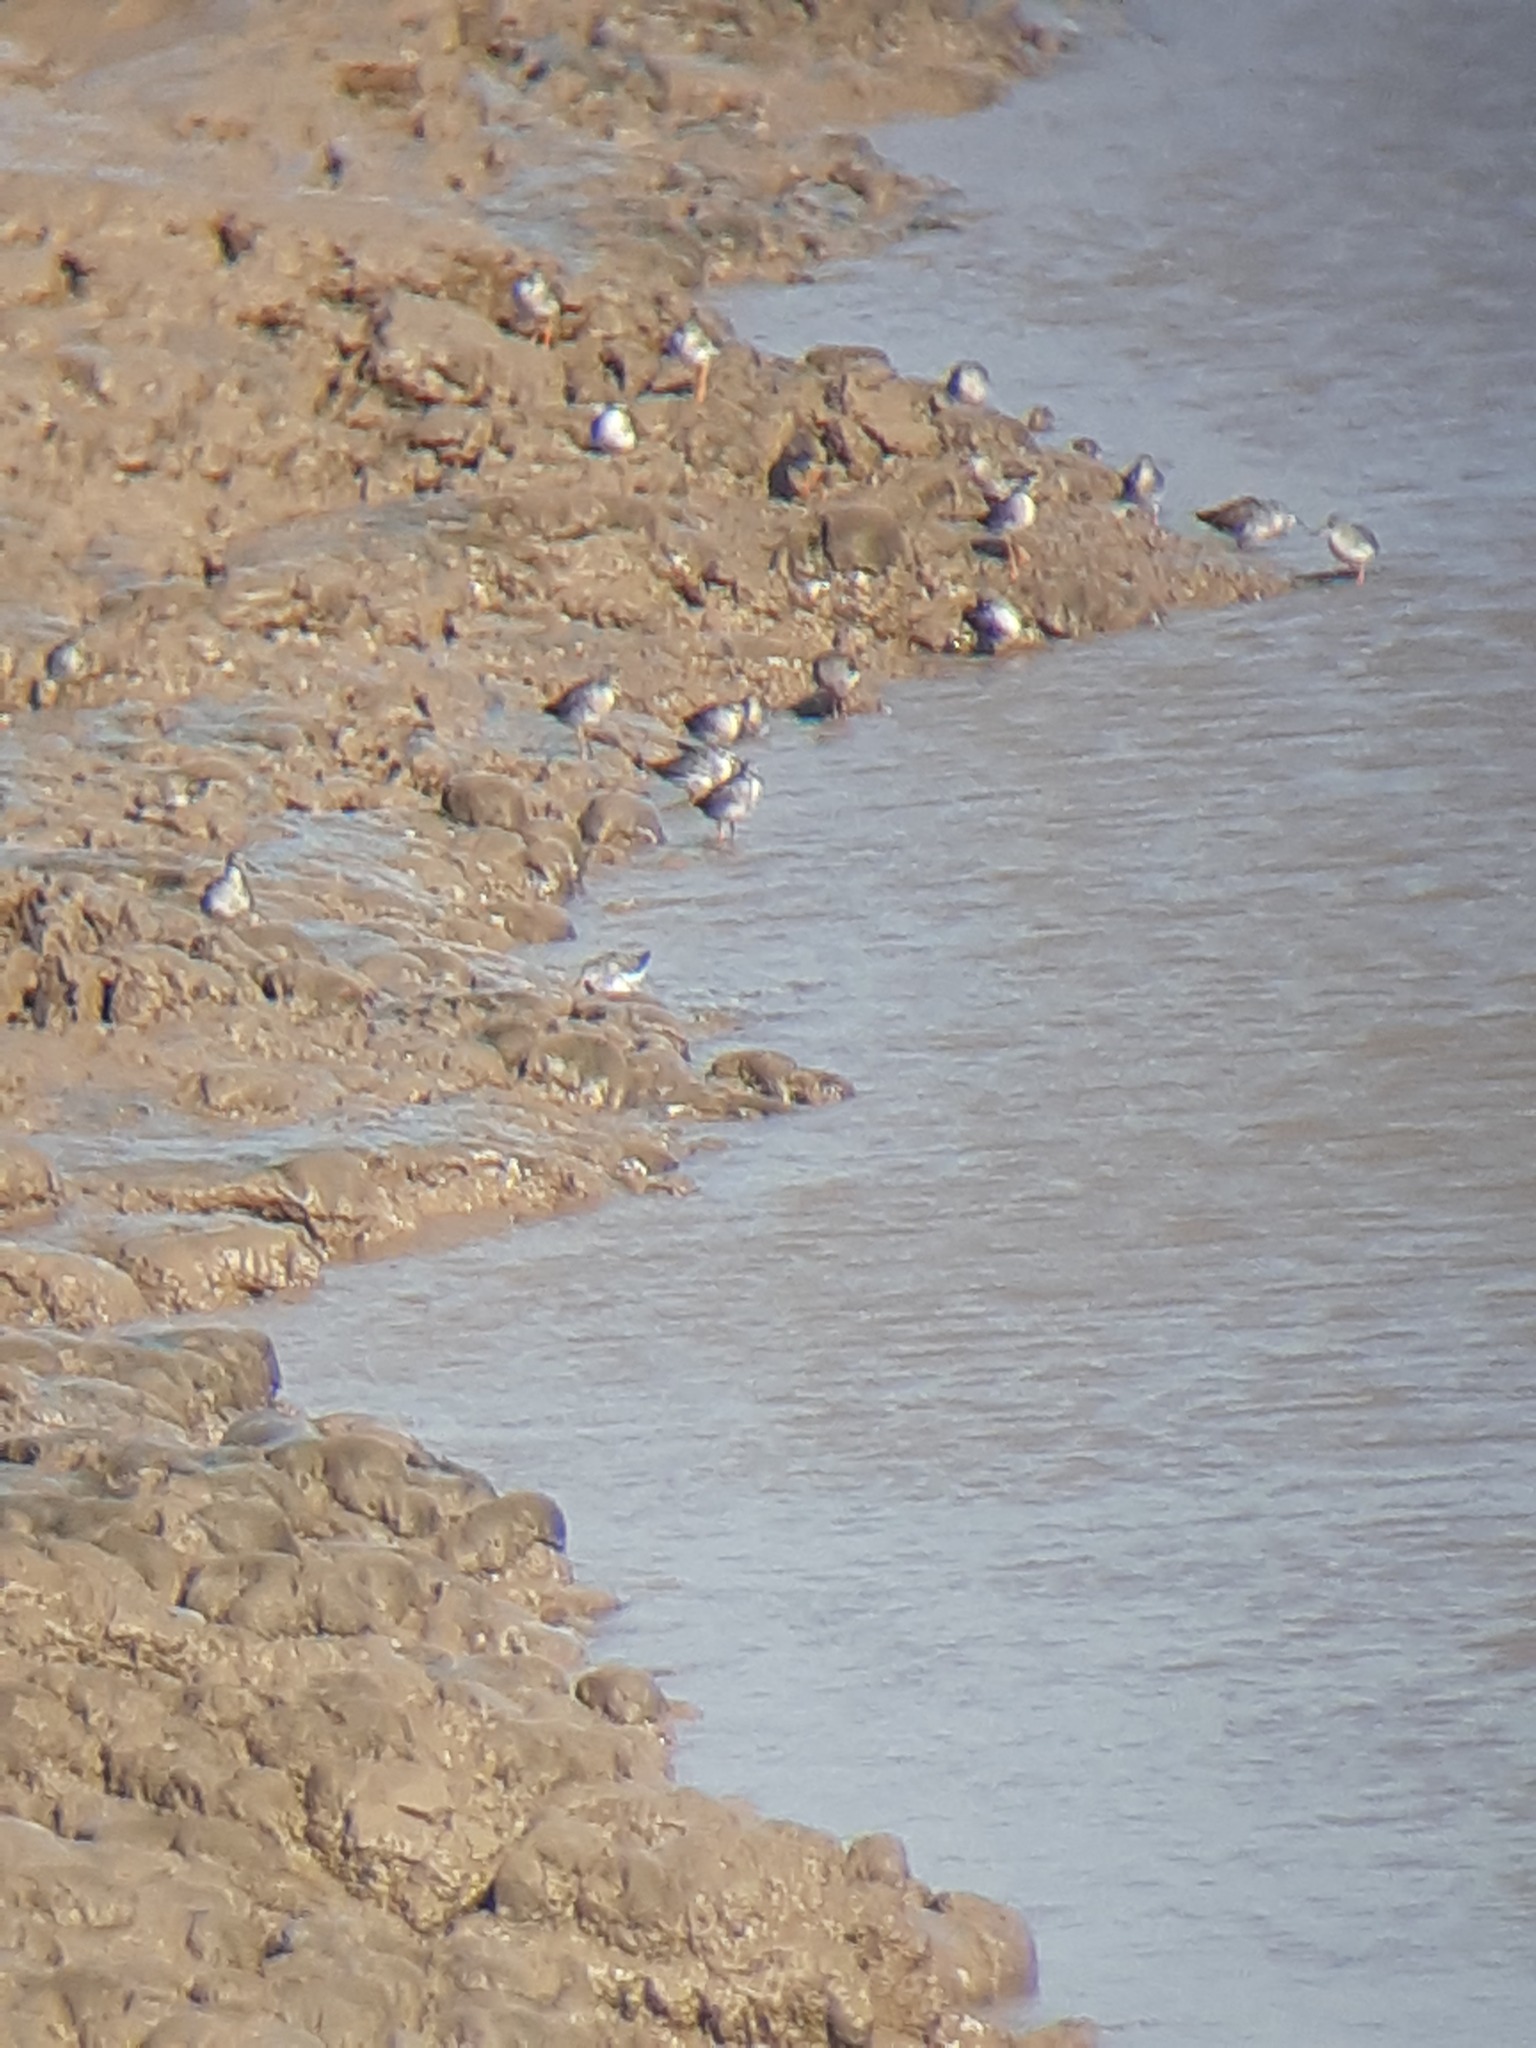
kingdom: Animalia
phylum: Chordata
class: Aves
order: Charadriiformes
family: Scolopacidae
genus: Tringa
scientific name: Tringa totanus
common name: Common redshank
